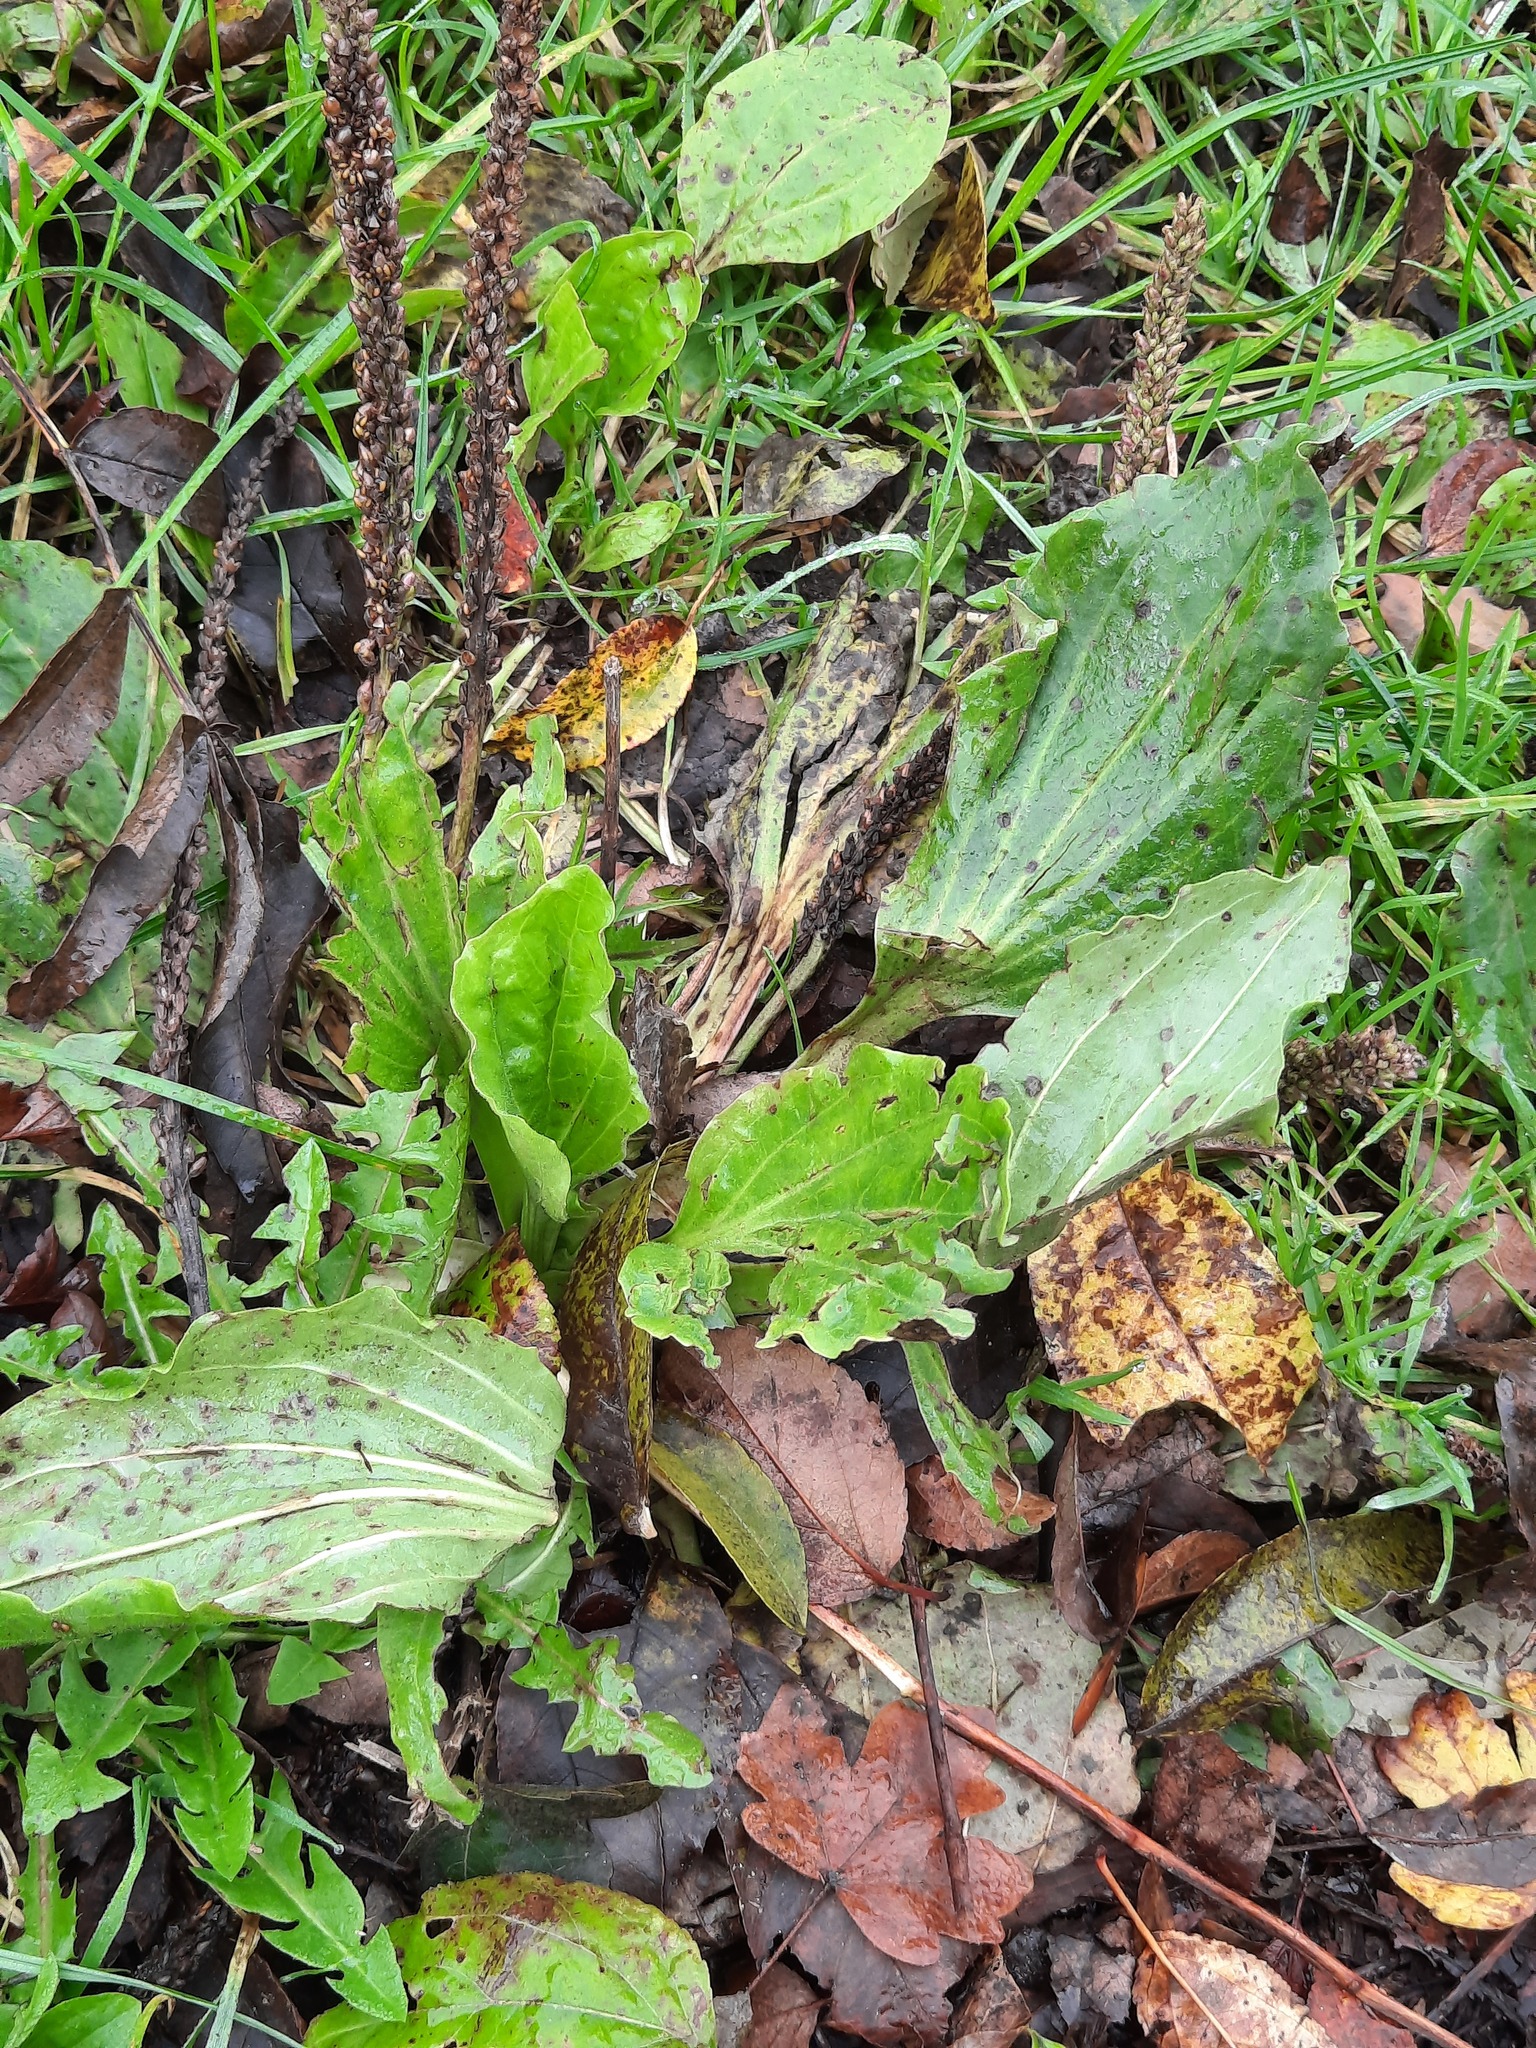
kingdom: Plantae
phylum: Tracheophyta
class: Magnoliopsida
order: Lamiales
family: Plantaginaceae
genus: Plantago
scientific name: Plantago major
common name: Common plantain
